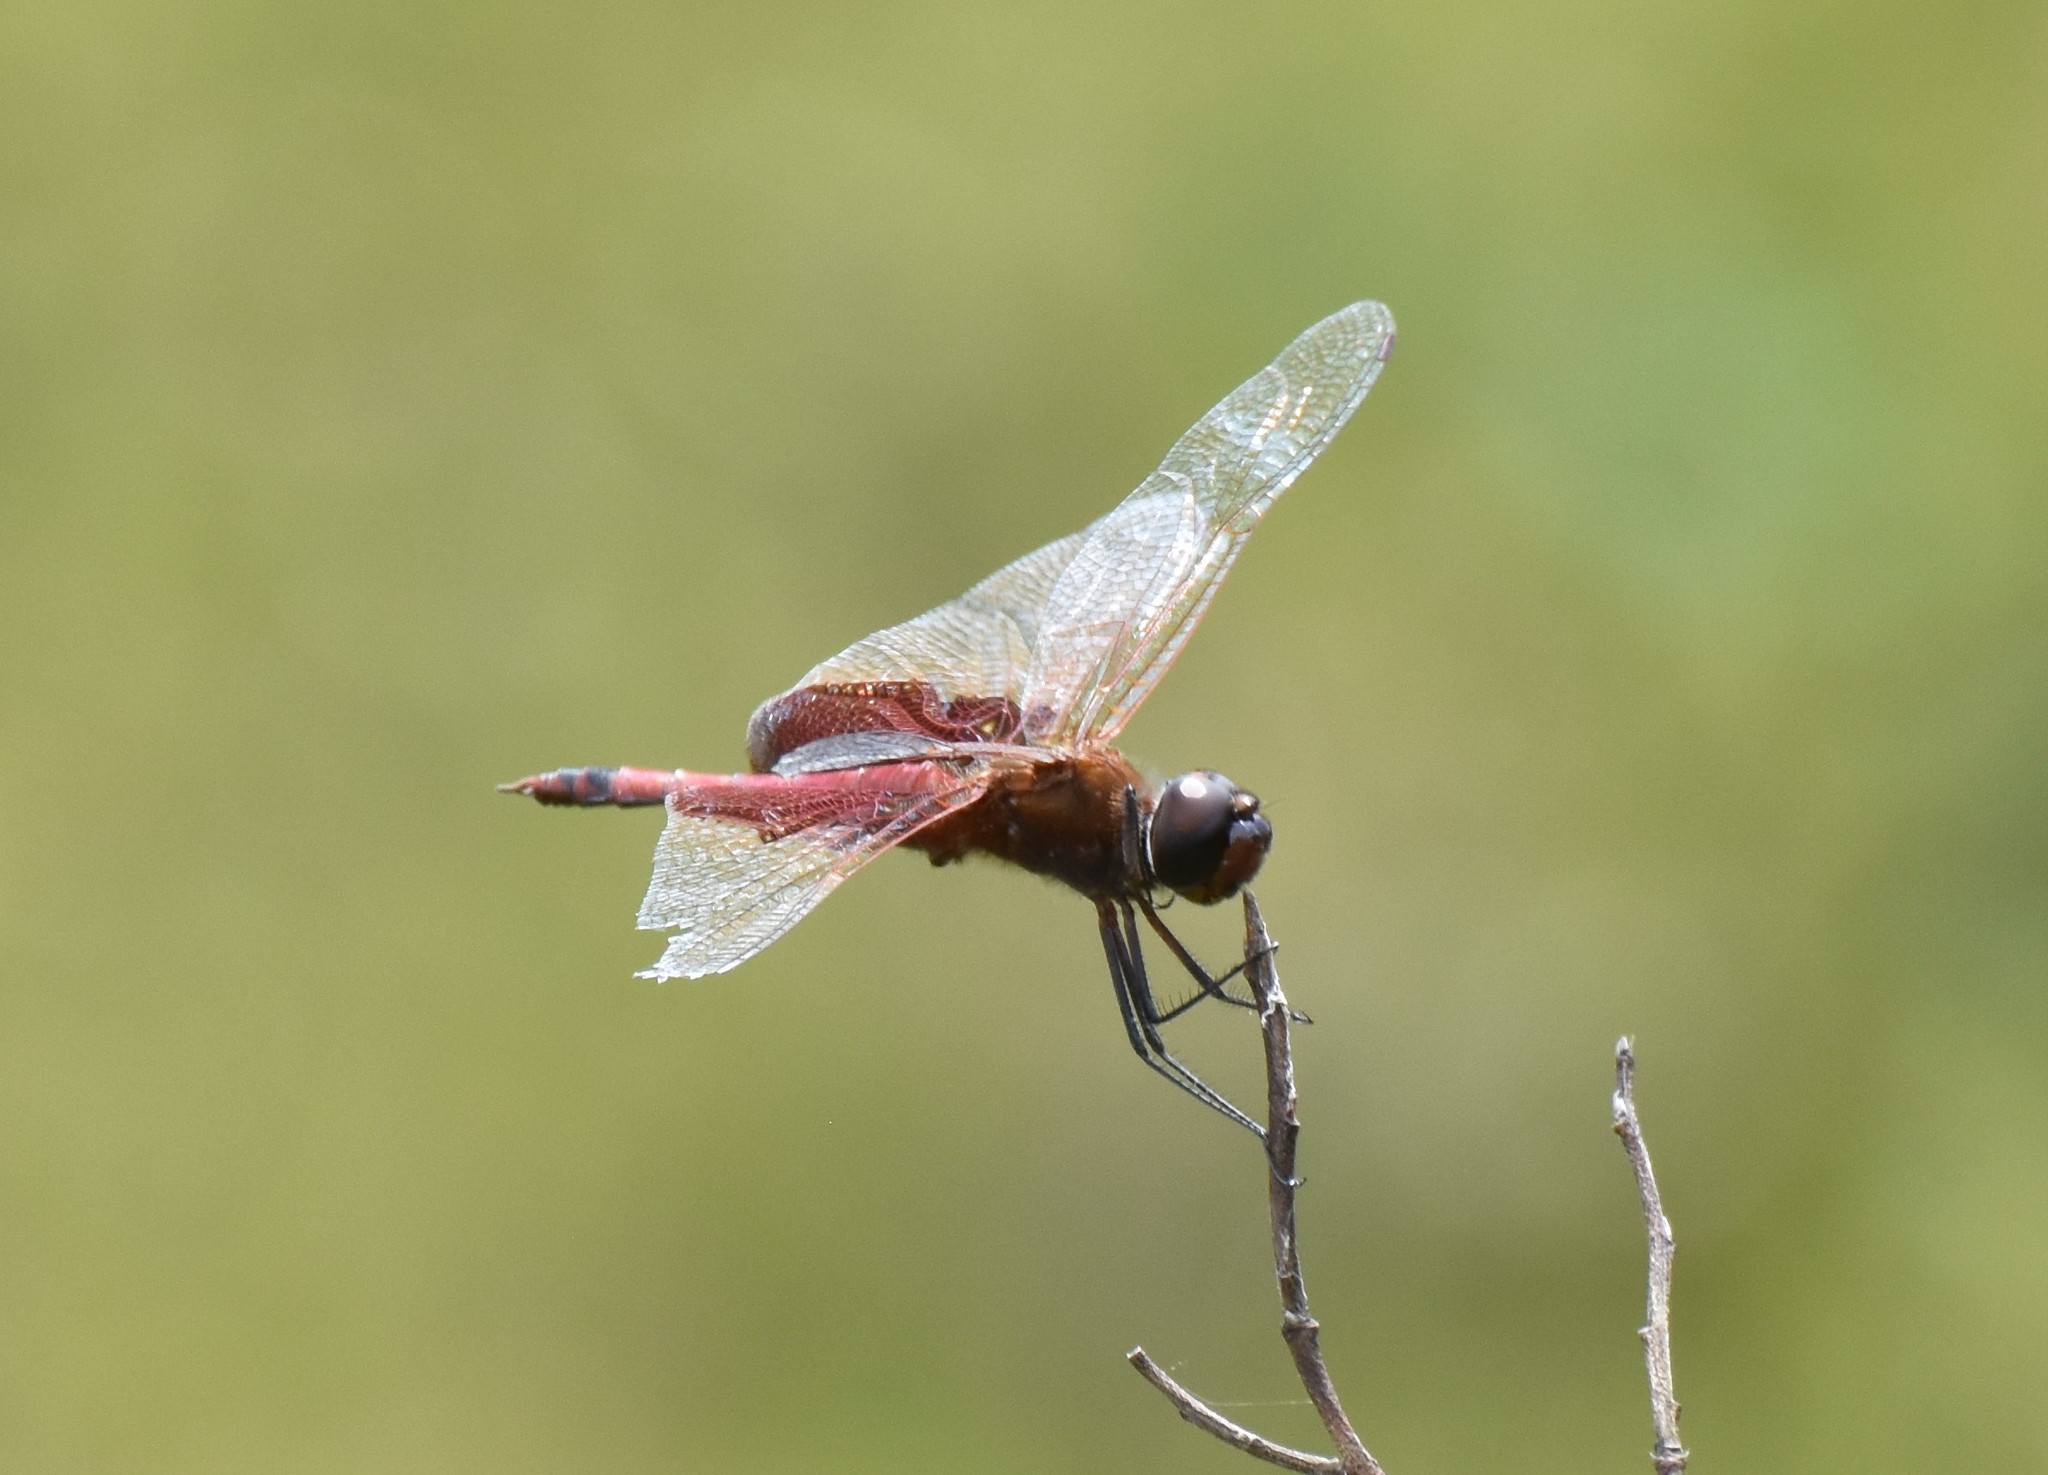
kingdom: Animalia
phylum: Arthropoda
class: Insecta
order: Odonata
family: Libellulidae
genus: Tramea
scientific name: Tramea carolina
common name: Carolina saddlebags
